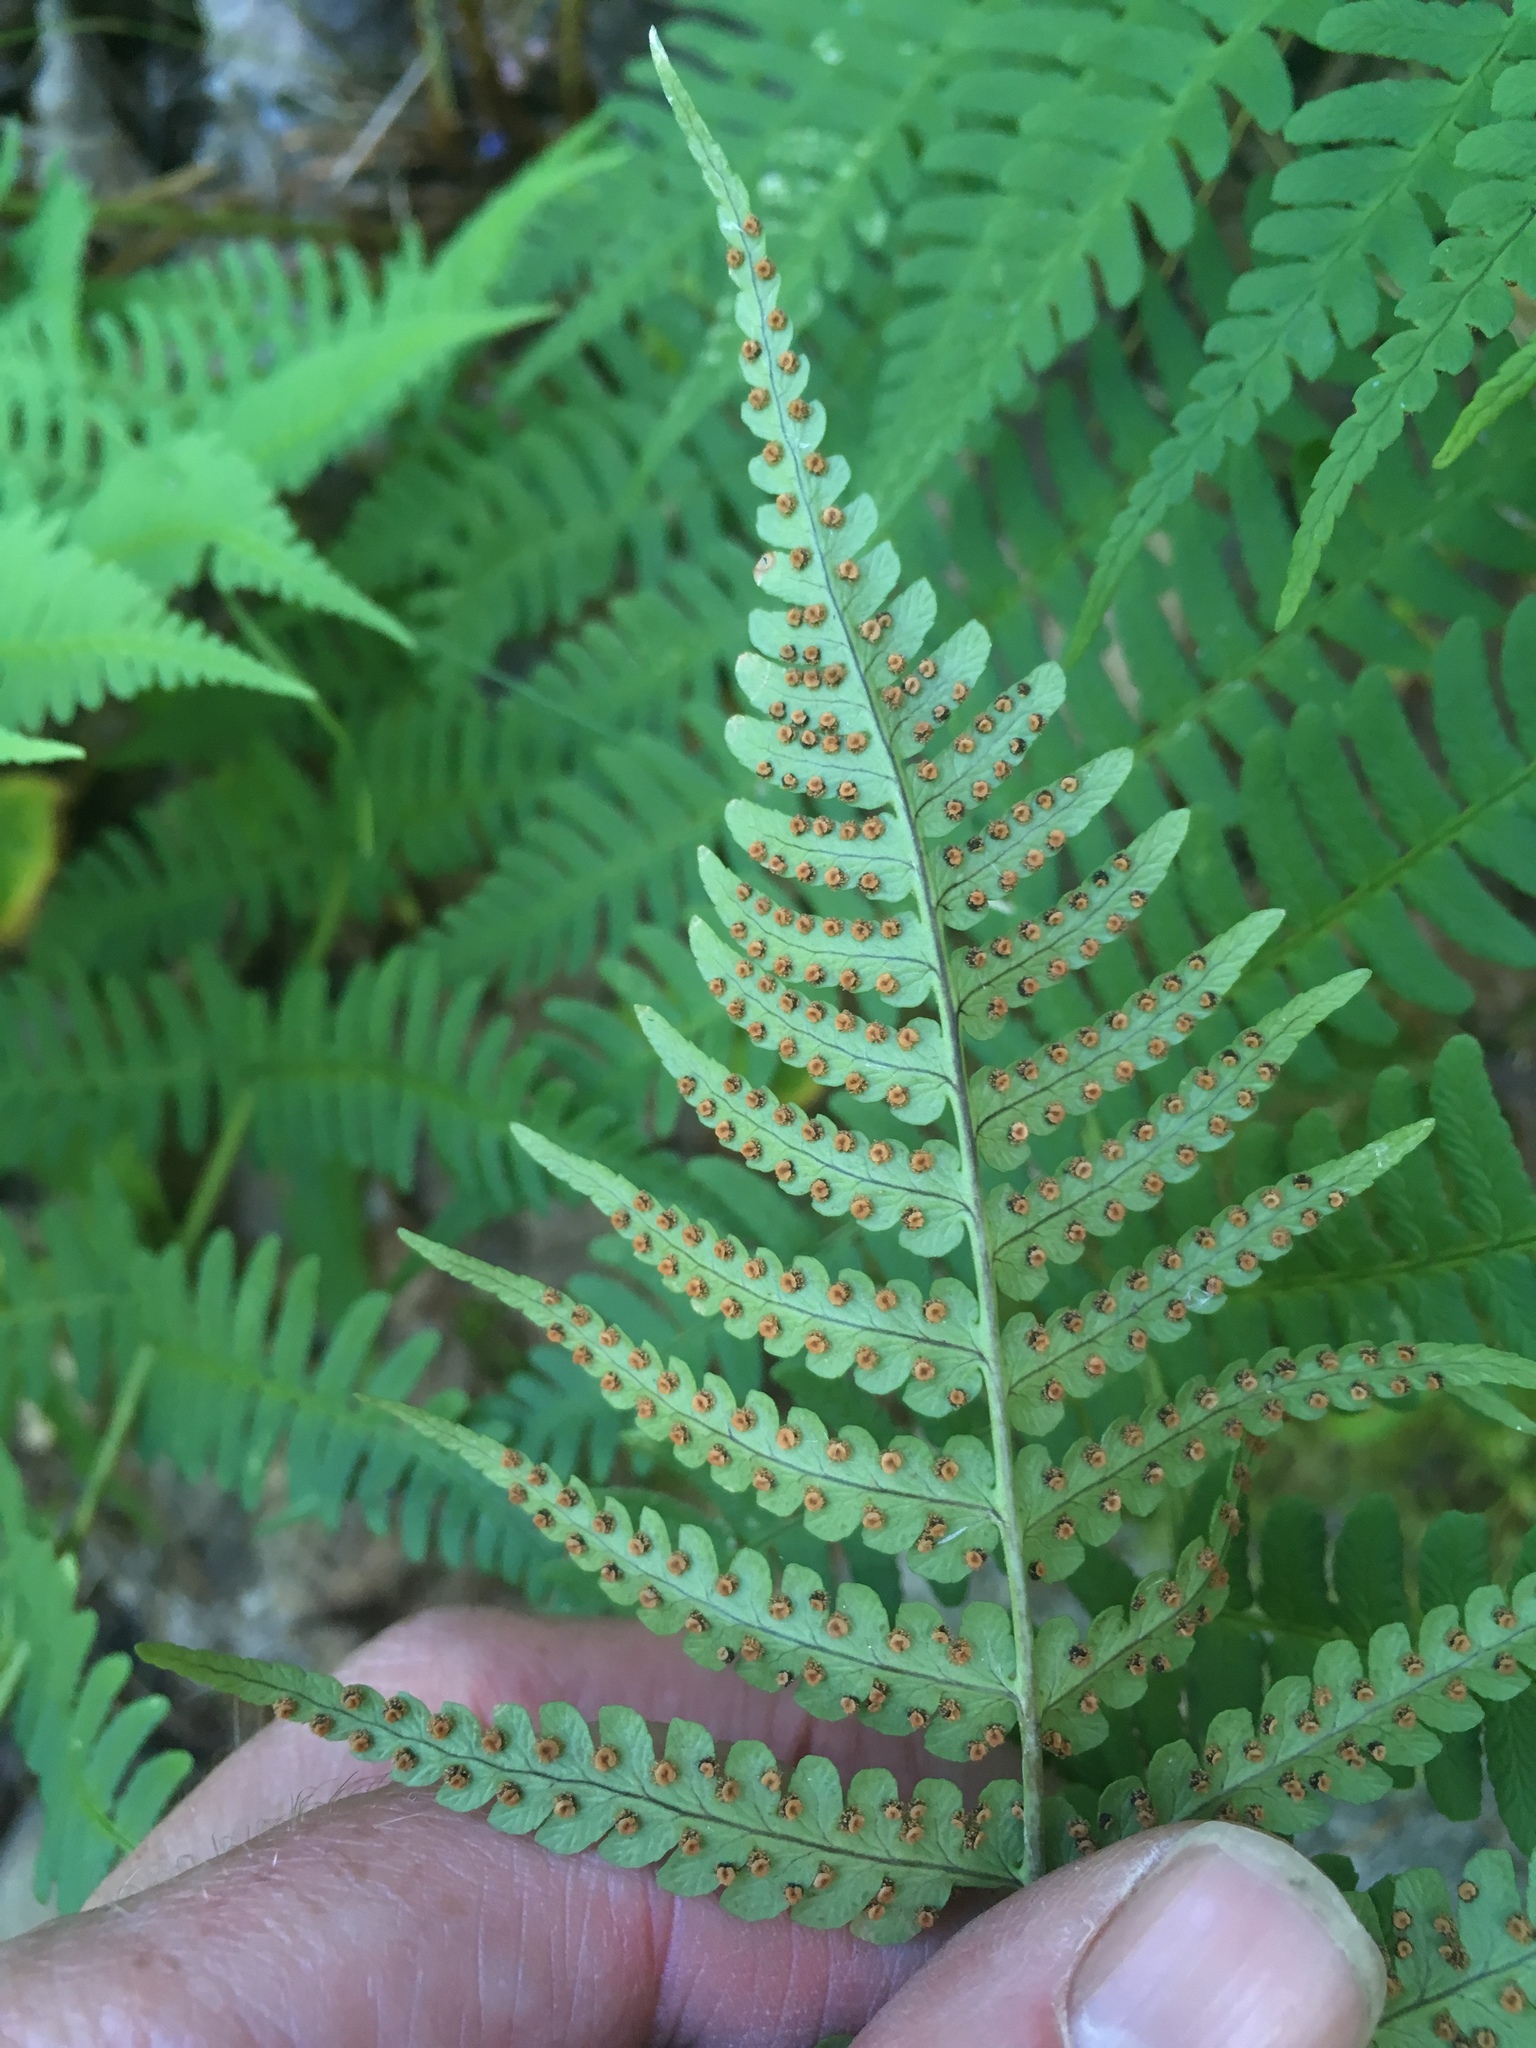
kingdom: Plantae
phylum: Tracheophyta
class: Polypodiopsida
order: Polypodiales
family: Dryopteridaceae
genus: Dryopteris
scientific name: Dryopteris marginalis
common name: Marginal wood fern
